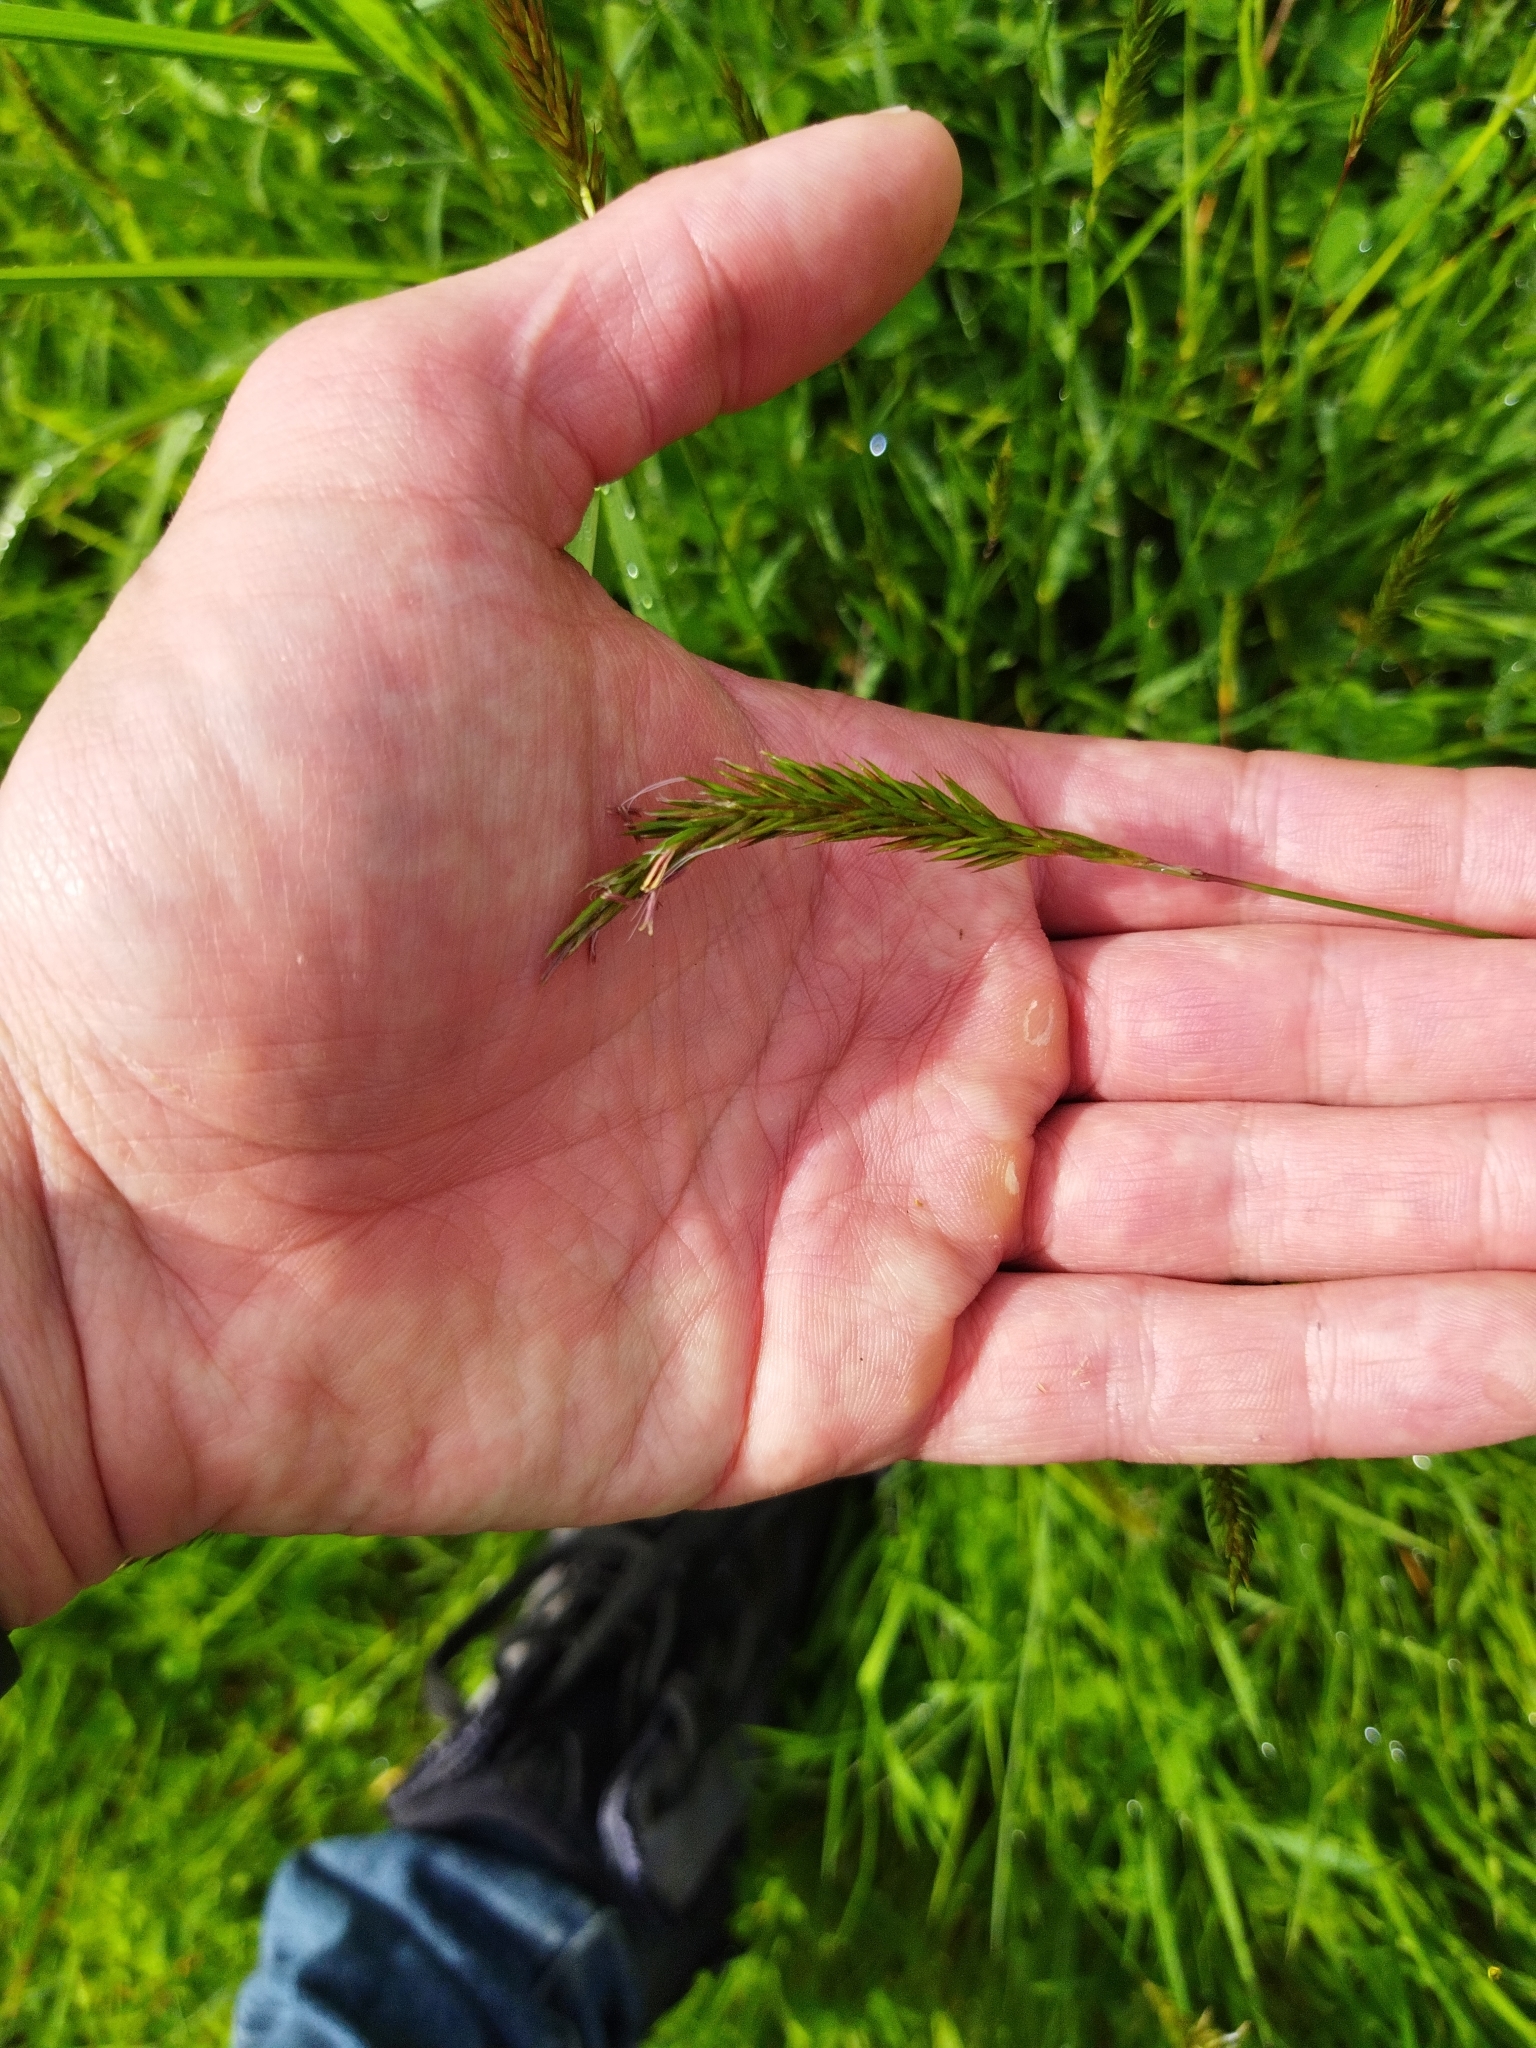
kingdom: Plantae
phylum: Tracheophyta
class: Liliopsida
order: Poales
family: Poaceae
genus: Anthoxanthum
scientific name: Anthoxanthum odoratum
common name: Sweet vernalgrass
